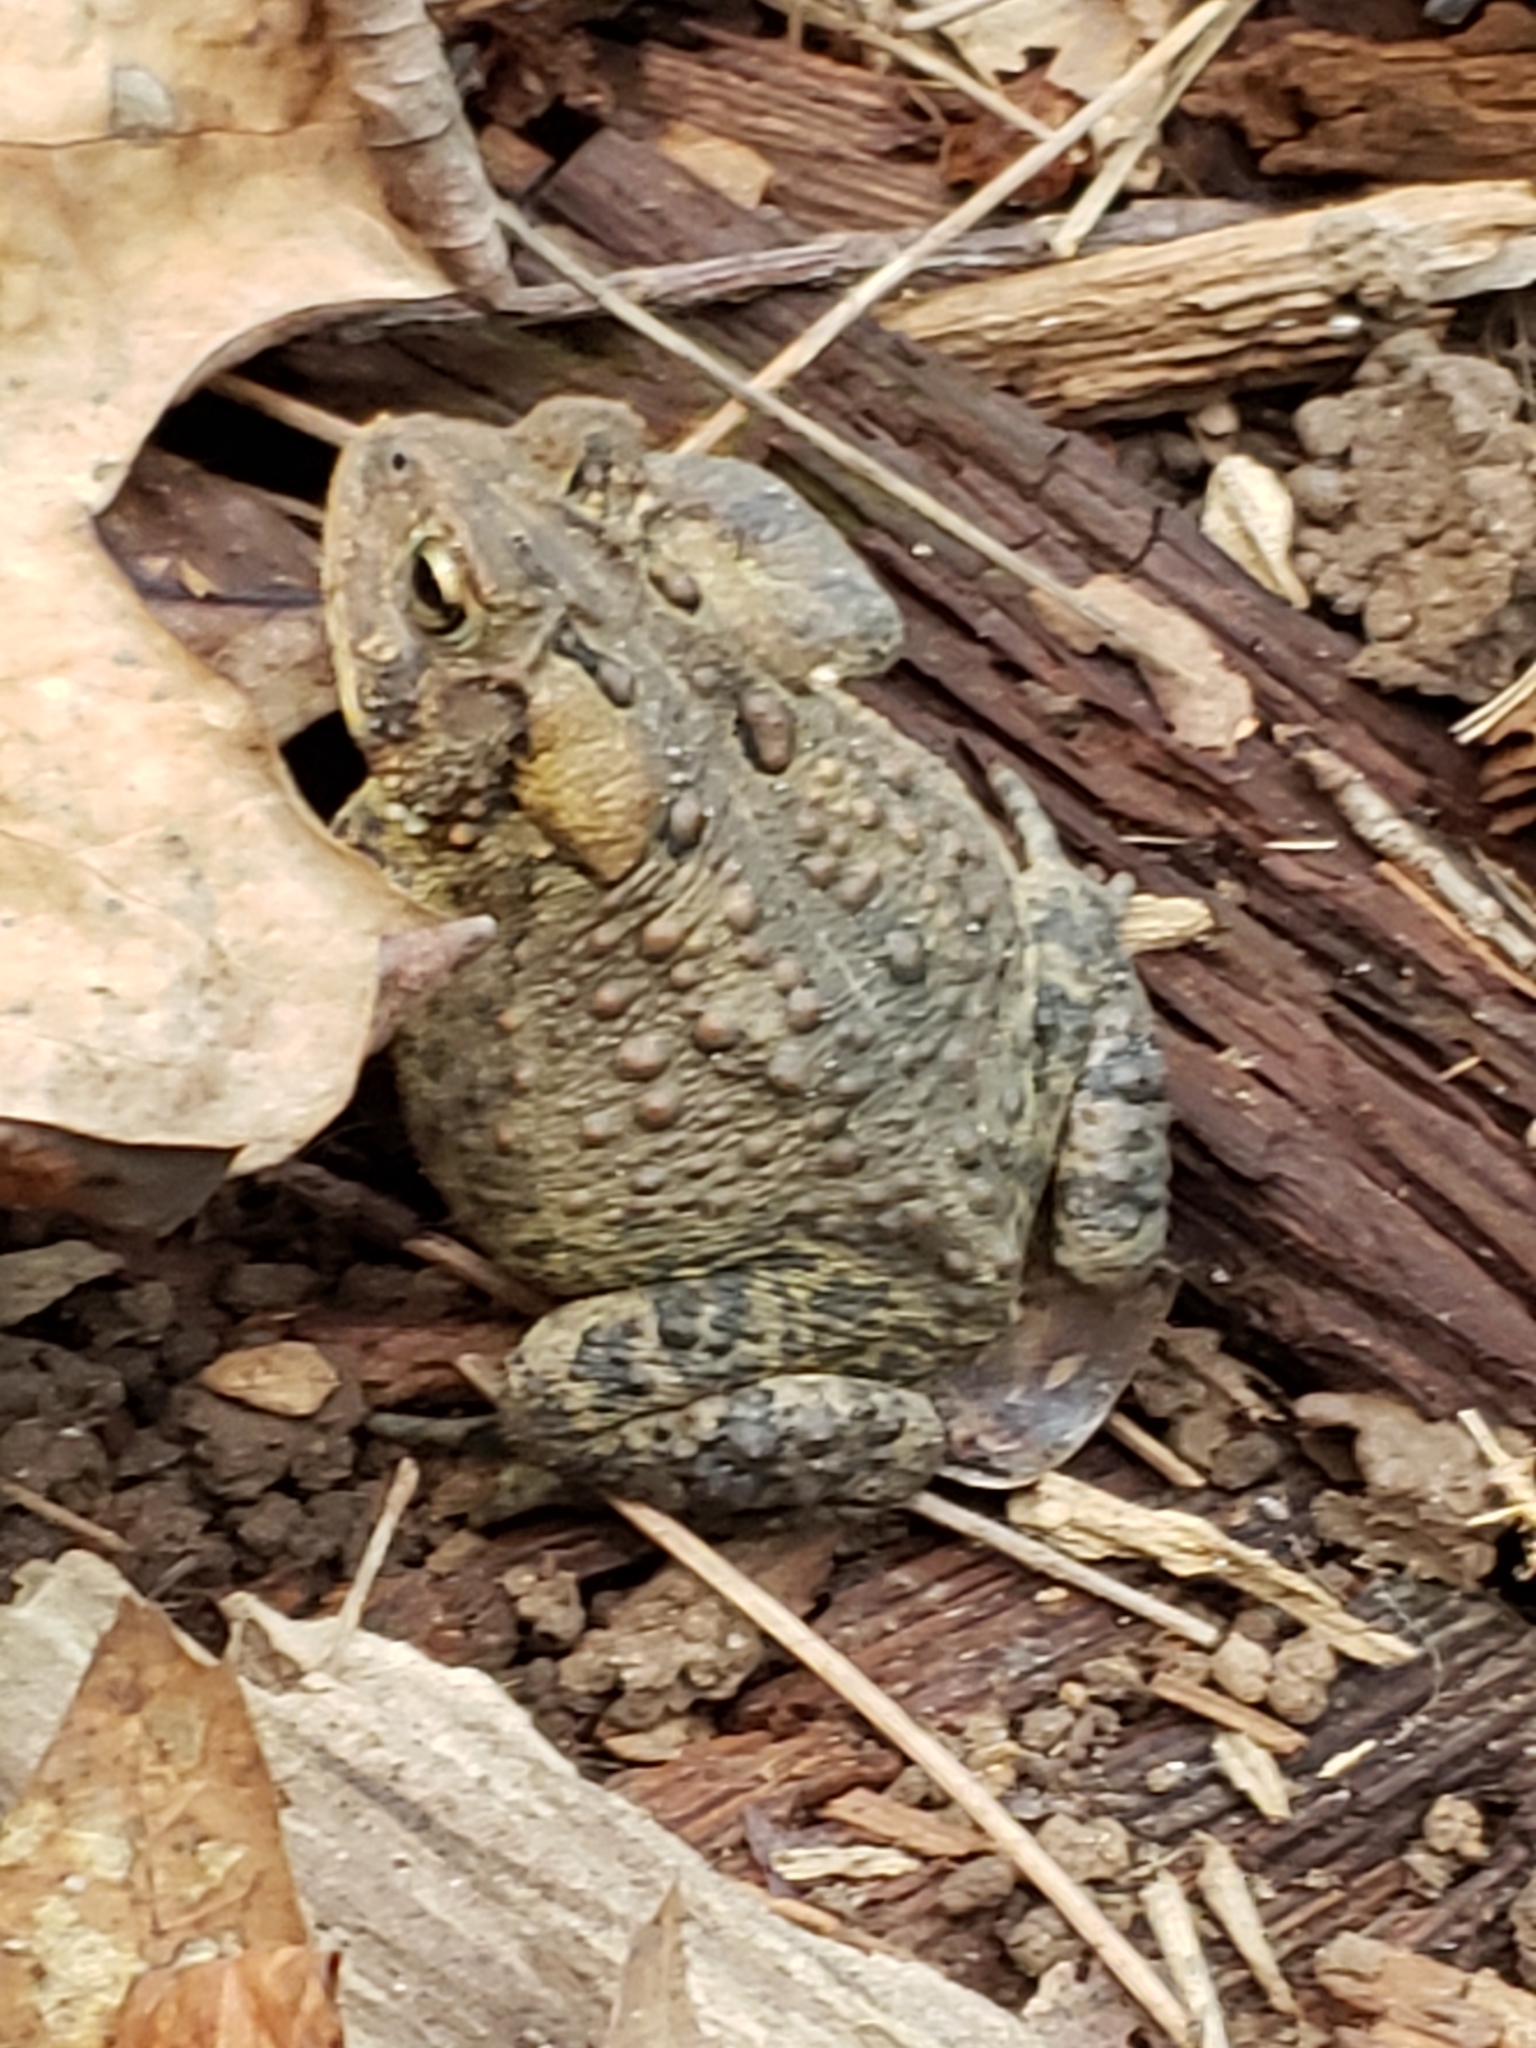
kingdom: Animalia
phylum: Chordata
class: Amphibia
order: Anura
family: Bufonidae
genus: Anaxyrus
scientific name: Anaxyrus americanus
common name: American toad
